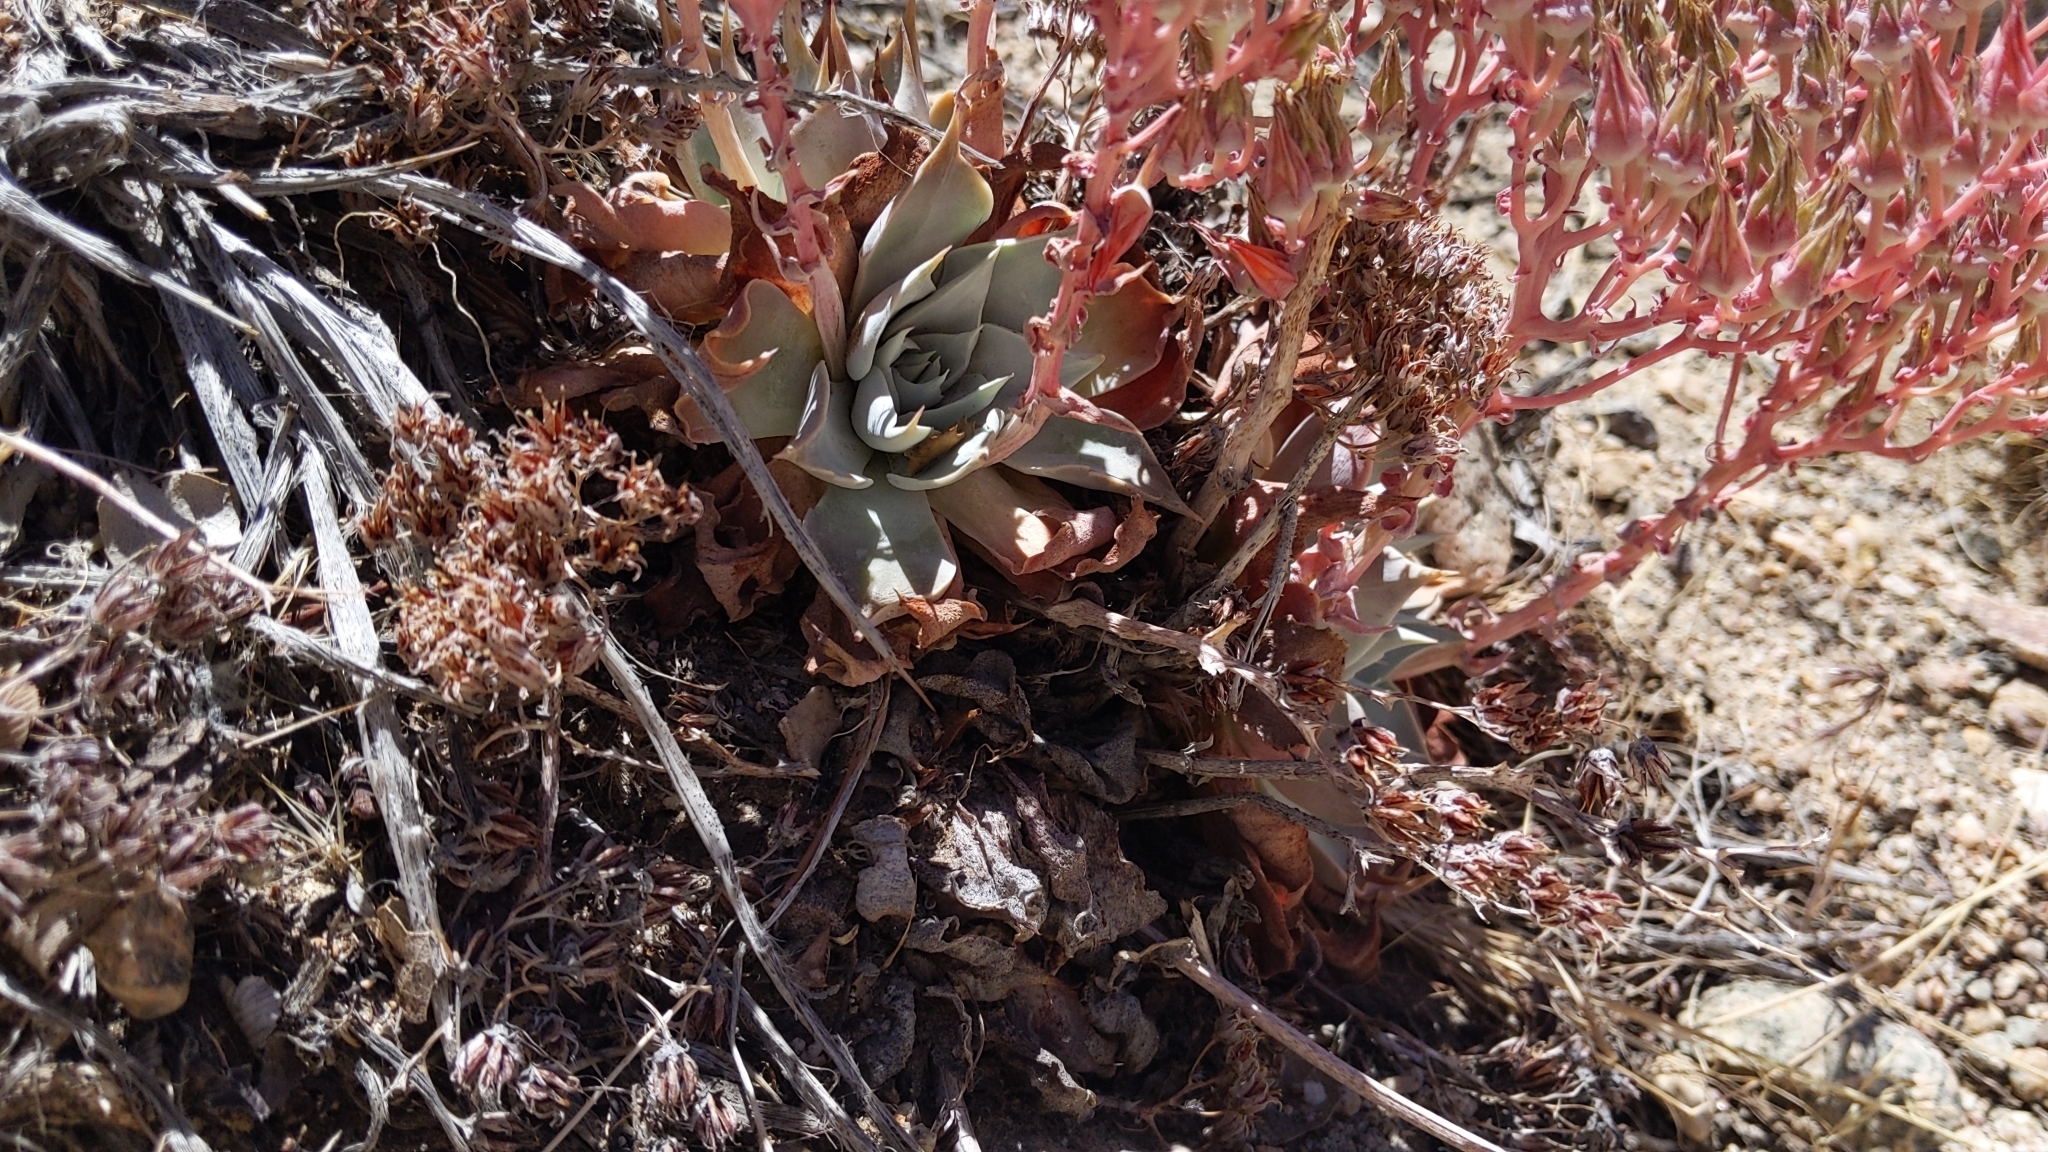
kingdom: Plantae
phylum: Tracheophyta
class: Magnoliopsida
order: Saxifragales
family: Crassulaceae
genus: Dudleya
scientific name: Dudleya cymosa
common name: Canyon dudleya
